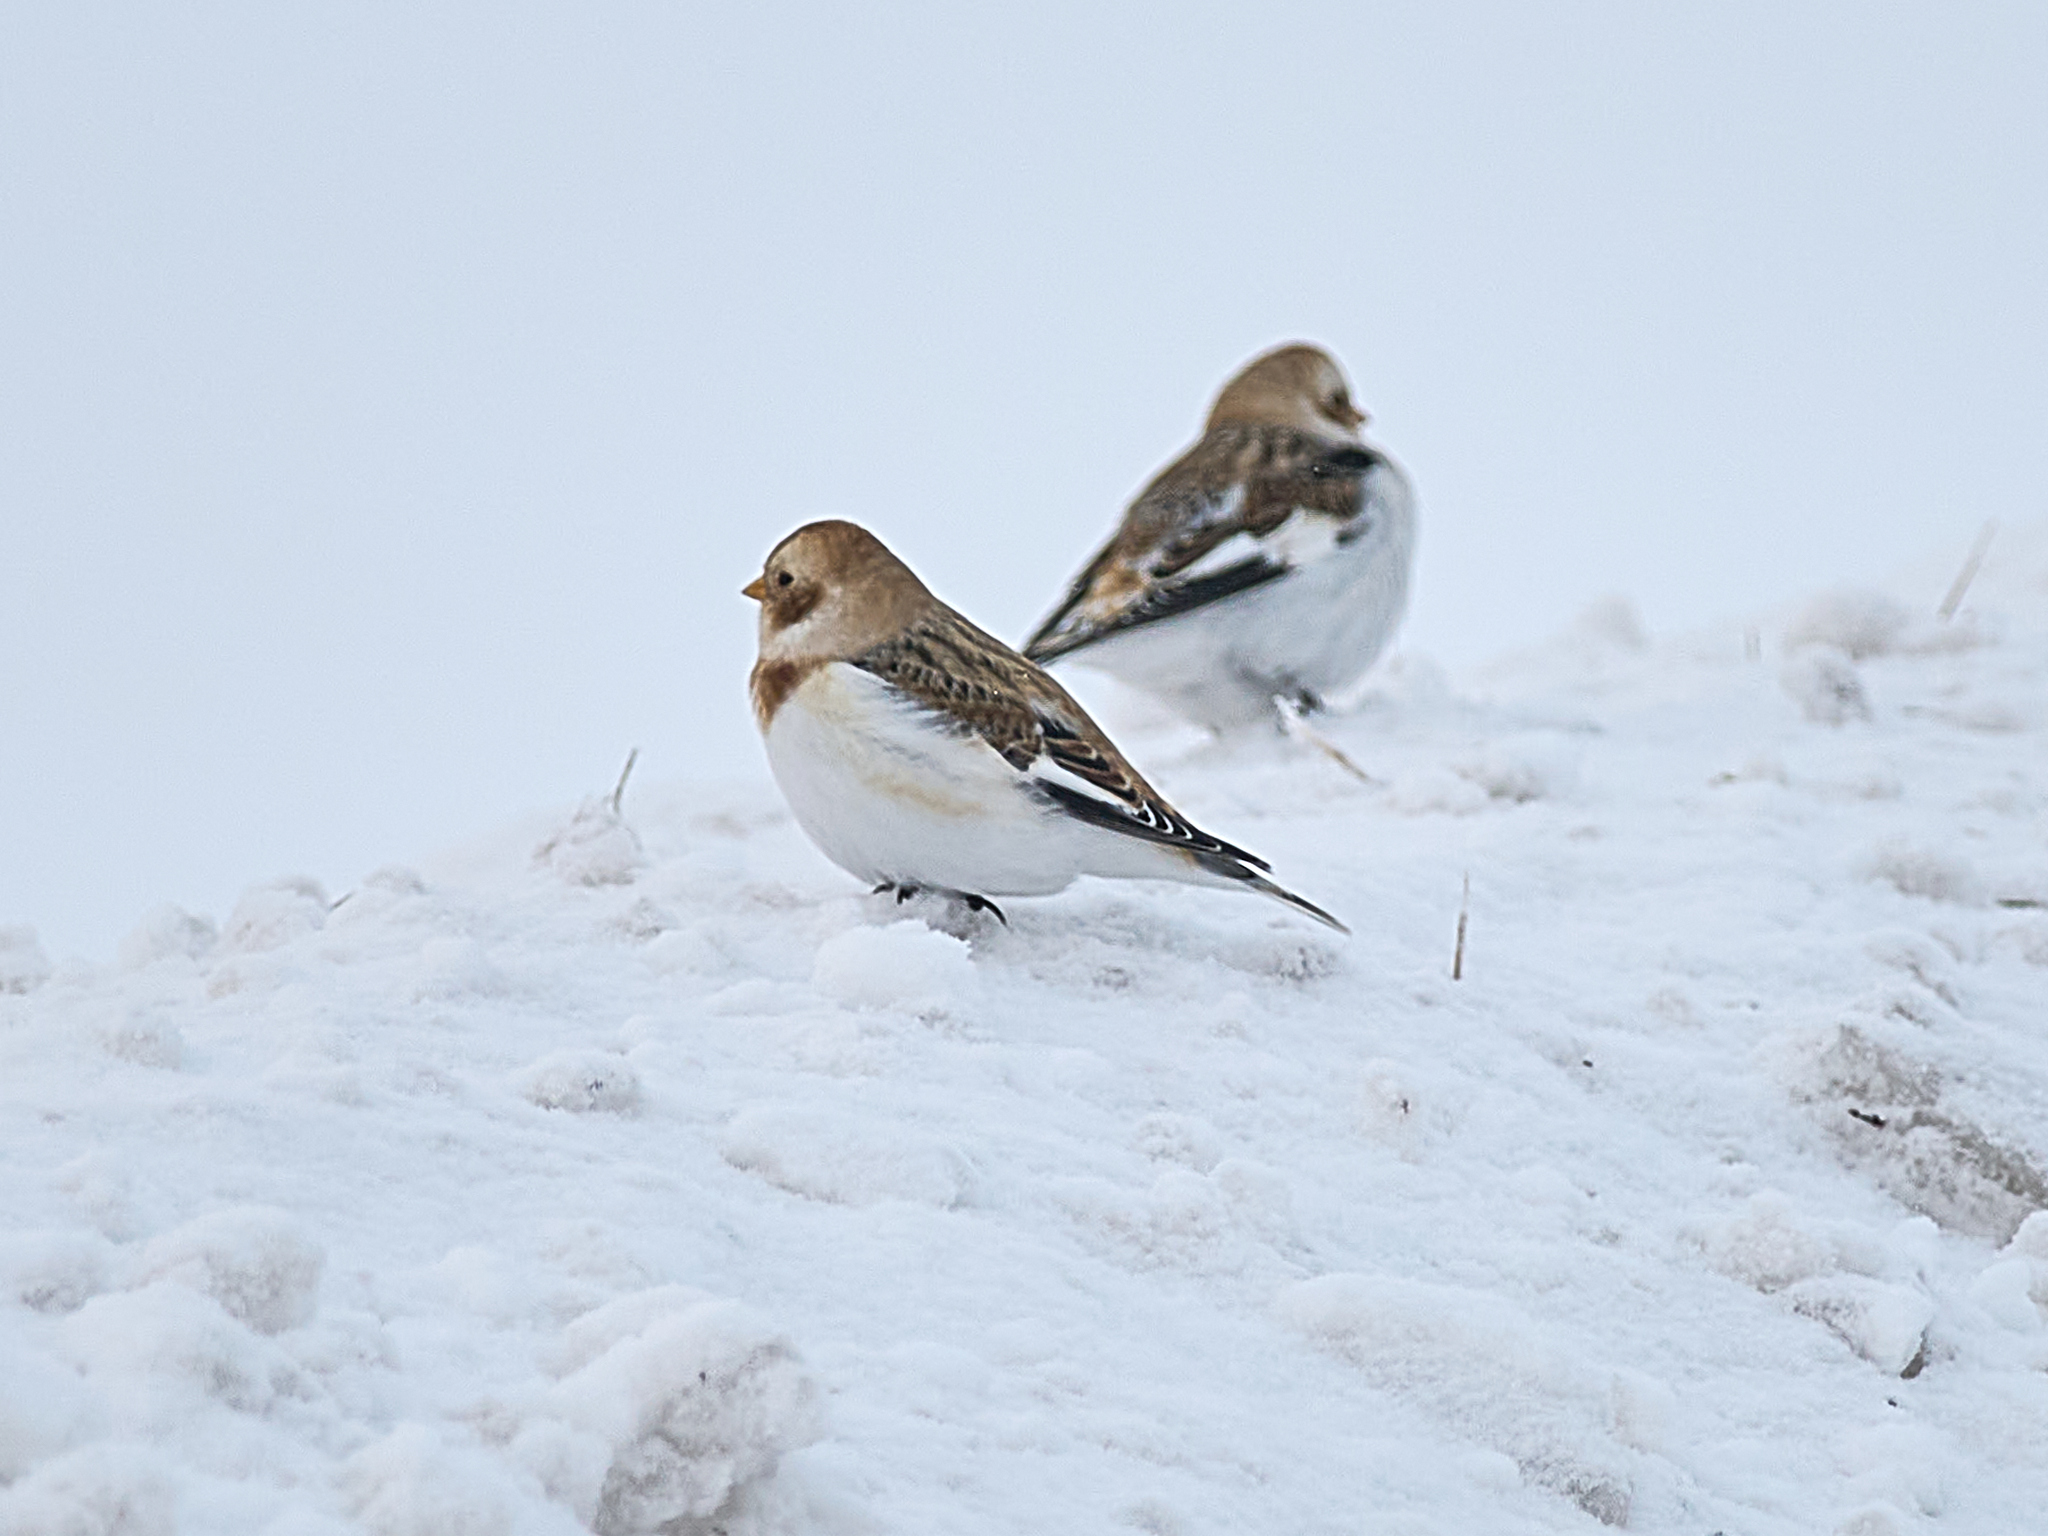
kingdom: Animalia
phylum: Chordata
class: Aves
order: Passeriformes
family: Calcariidae
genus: Plectrophenax
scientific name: Plectrophenax nivalis
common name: Snow bunting
